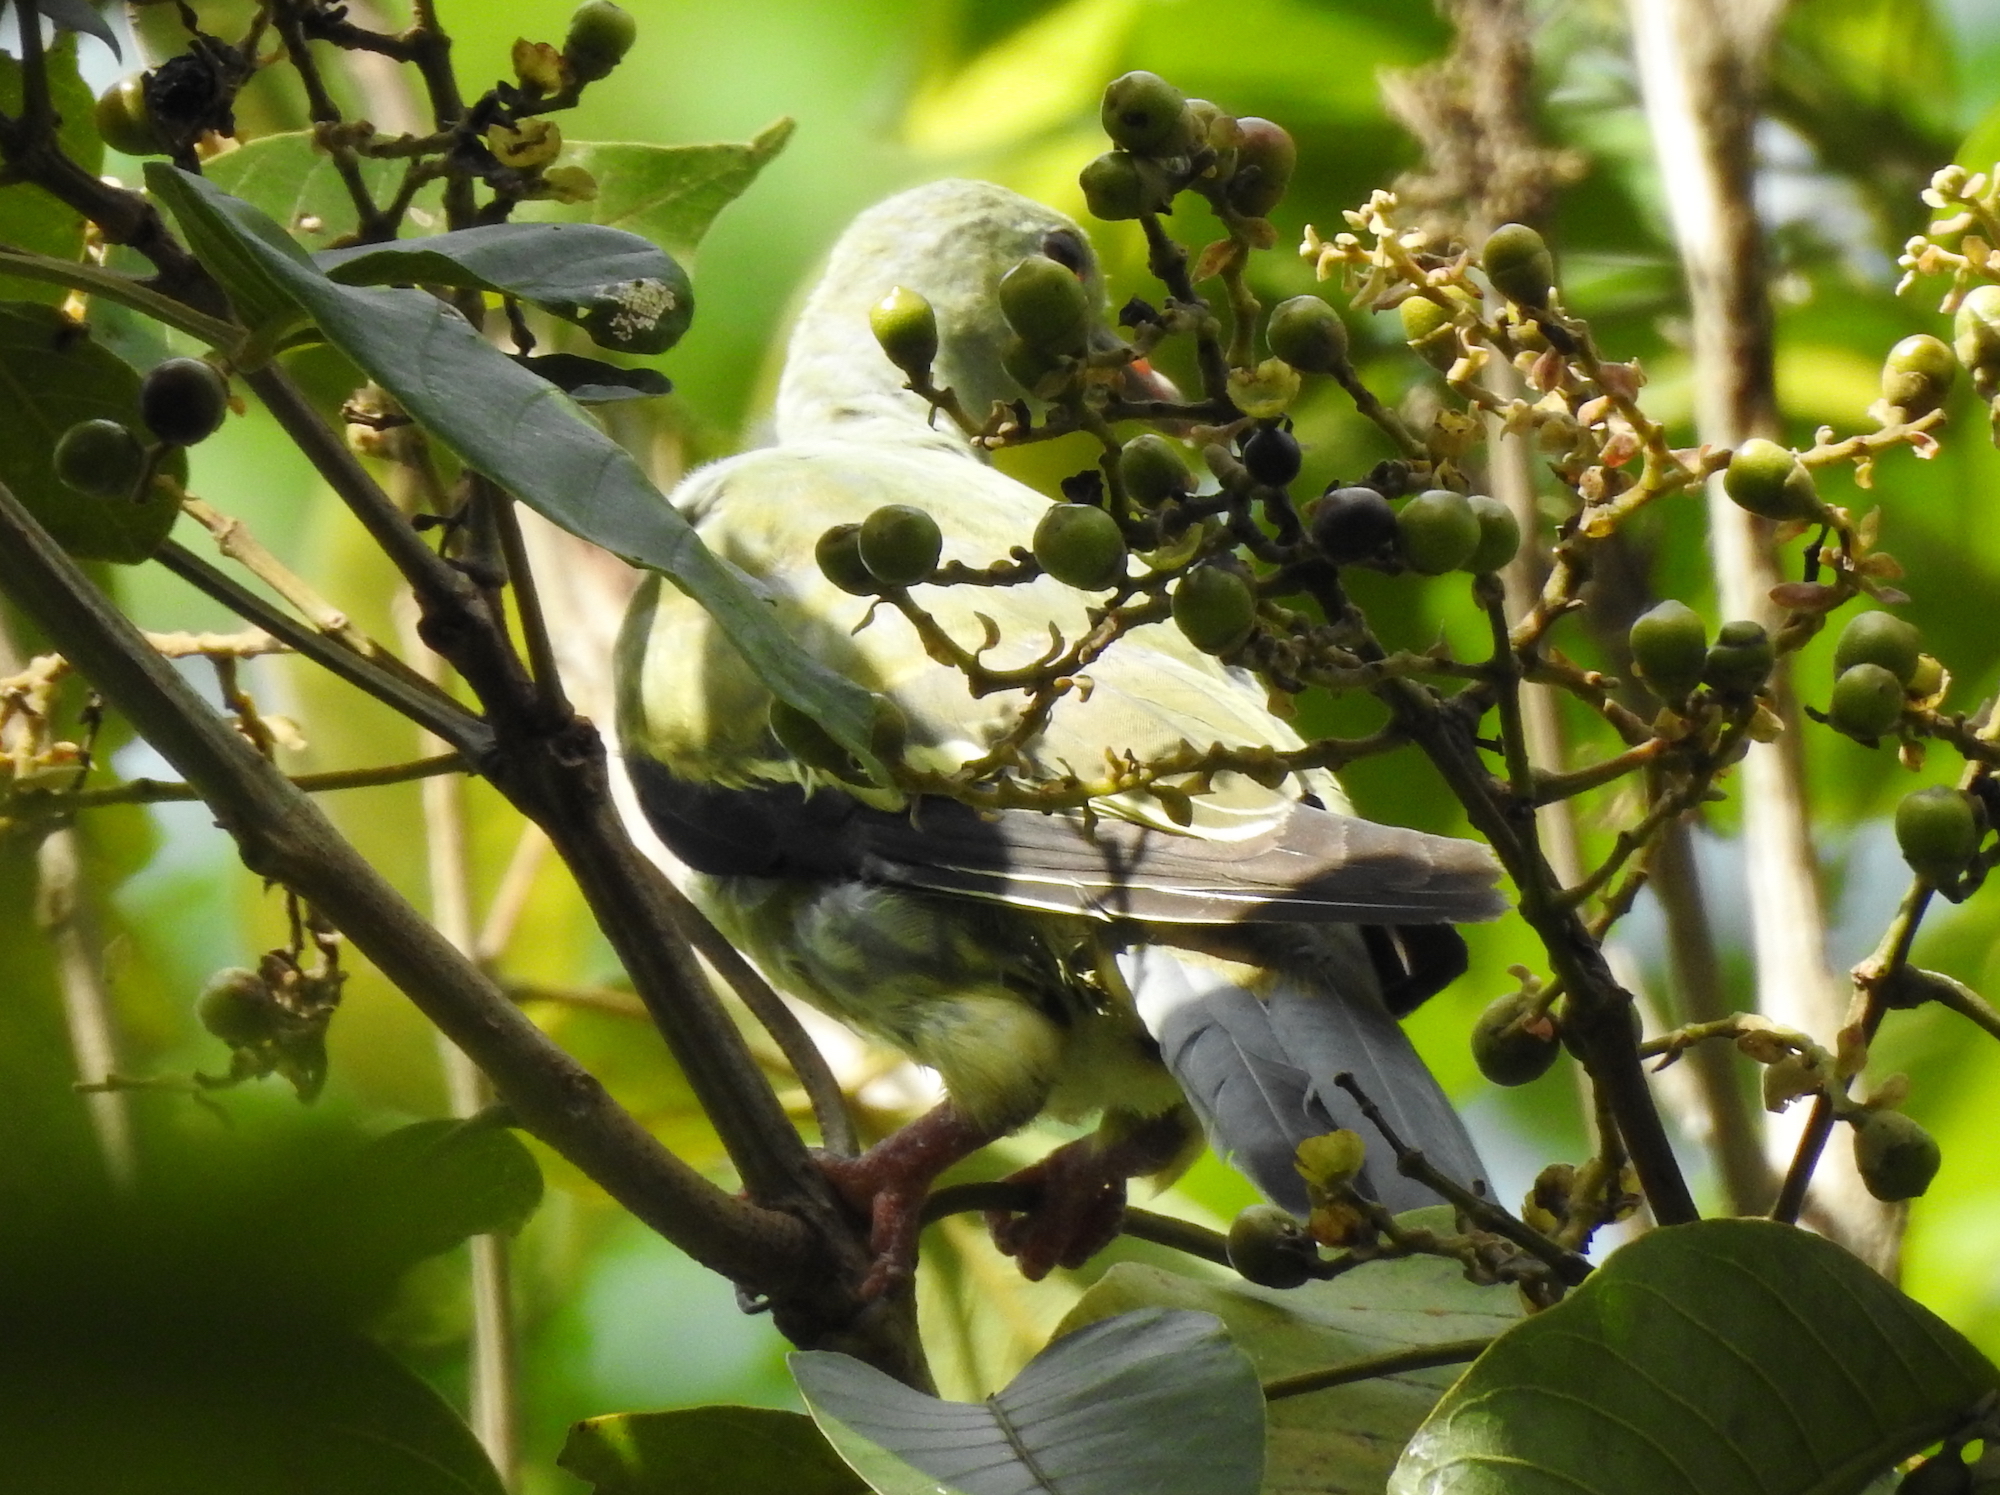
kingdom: Animalia
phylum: Chordata
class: Aves
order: Cuculiformes
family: Cuculidae
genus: Eudynamys
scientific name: Eudynamys scolopaceus
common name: Asian koel
